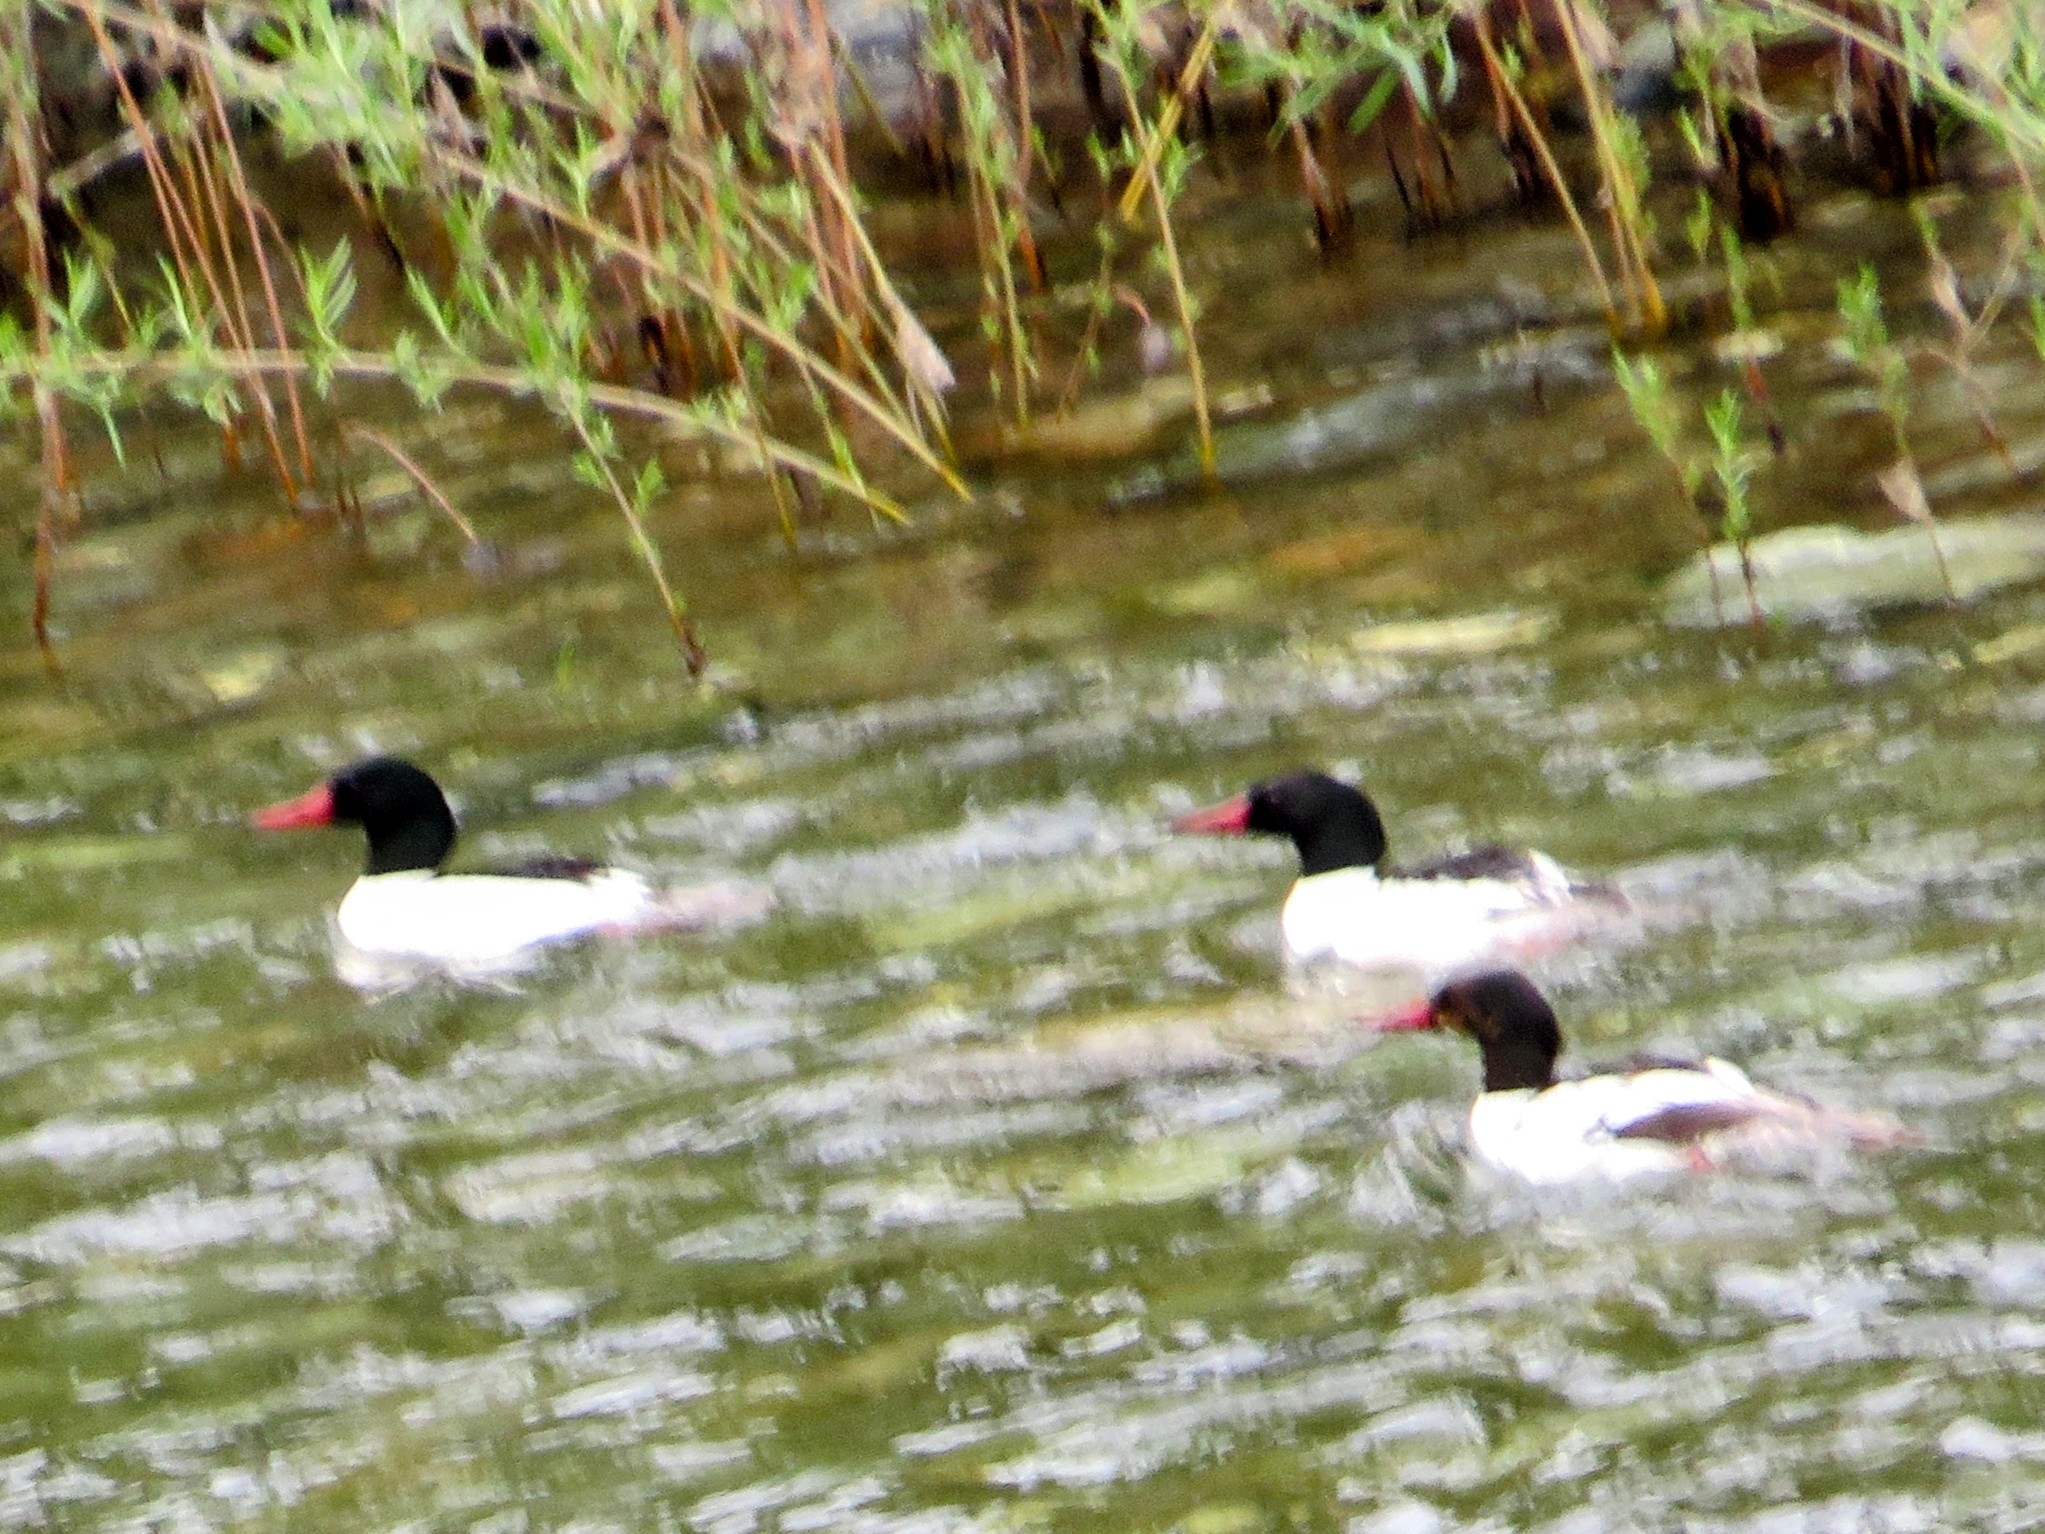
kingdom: Animalia
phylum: Chordata
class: Aves
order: Anseriformes
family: Anatidae
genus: Mergus
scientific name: Mergus merganser
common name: Common merganser
